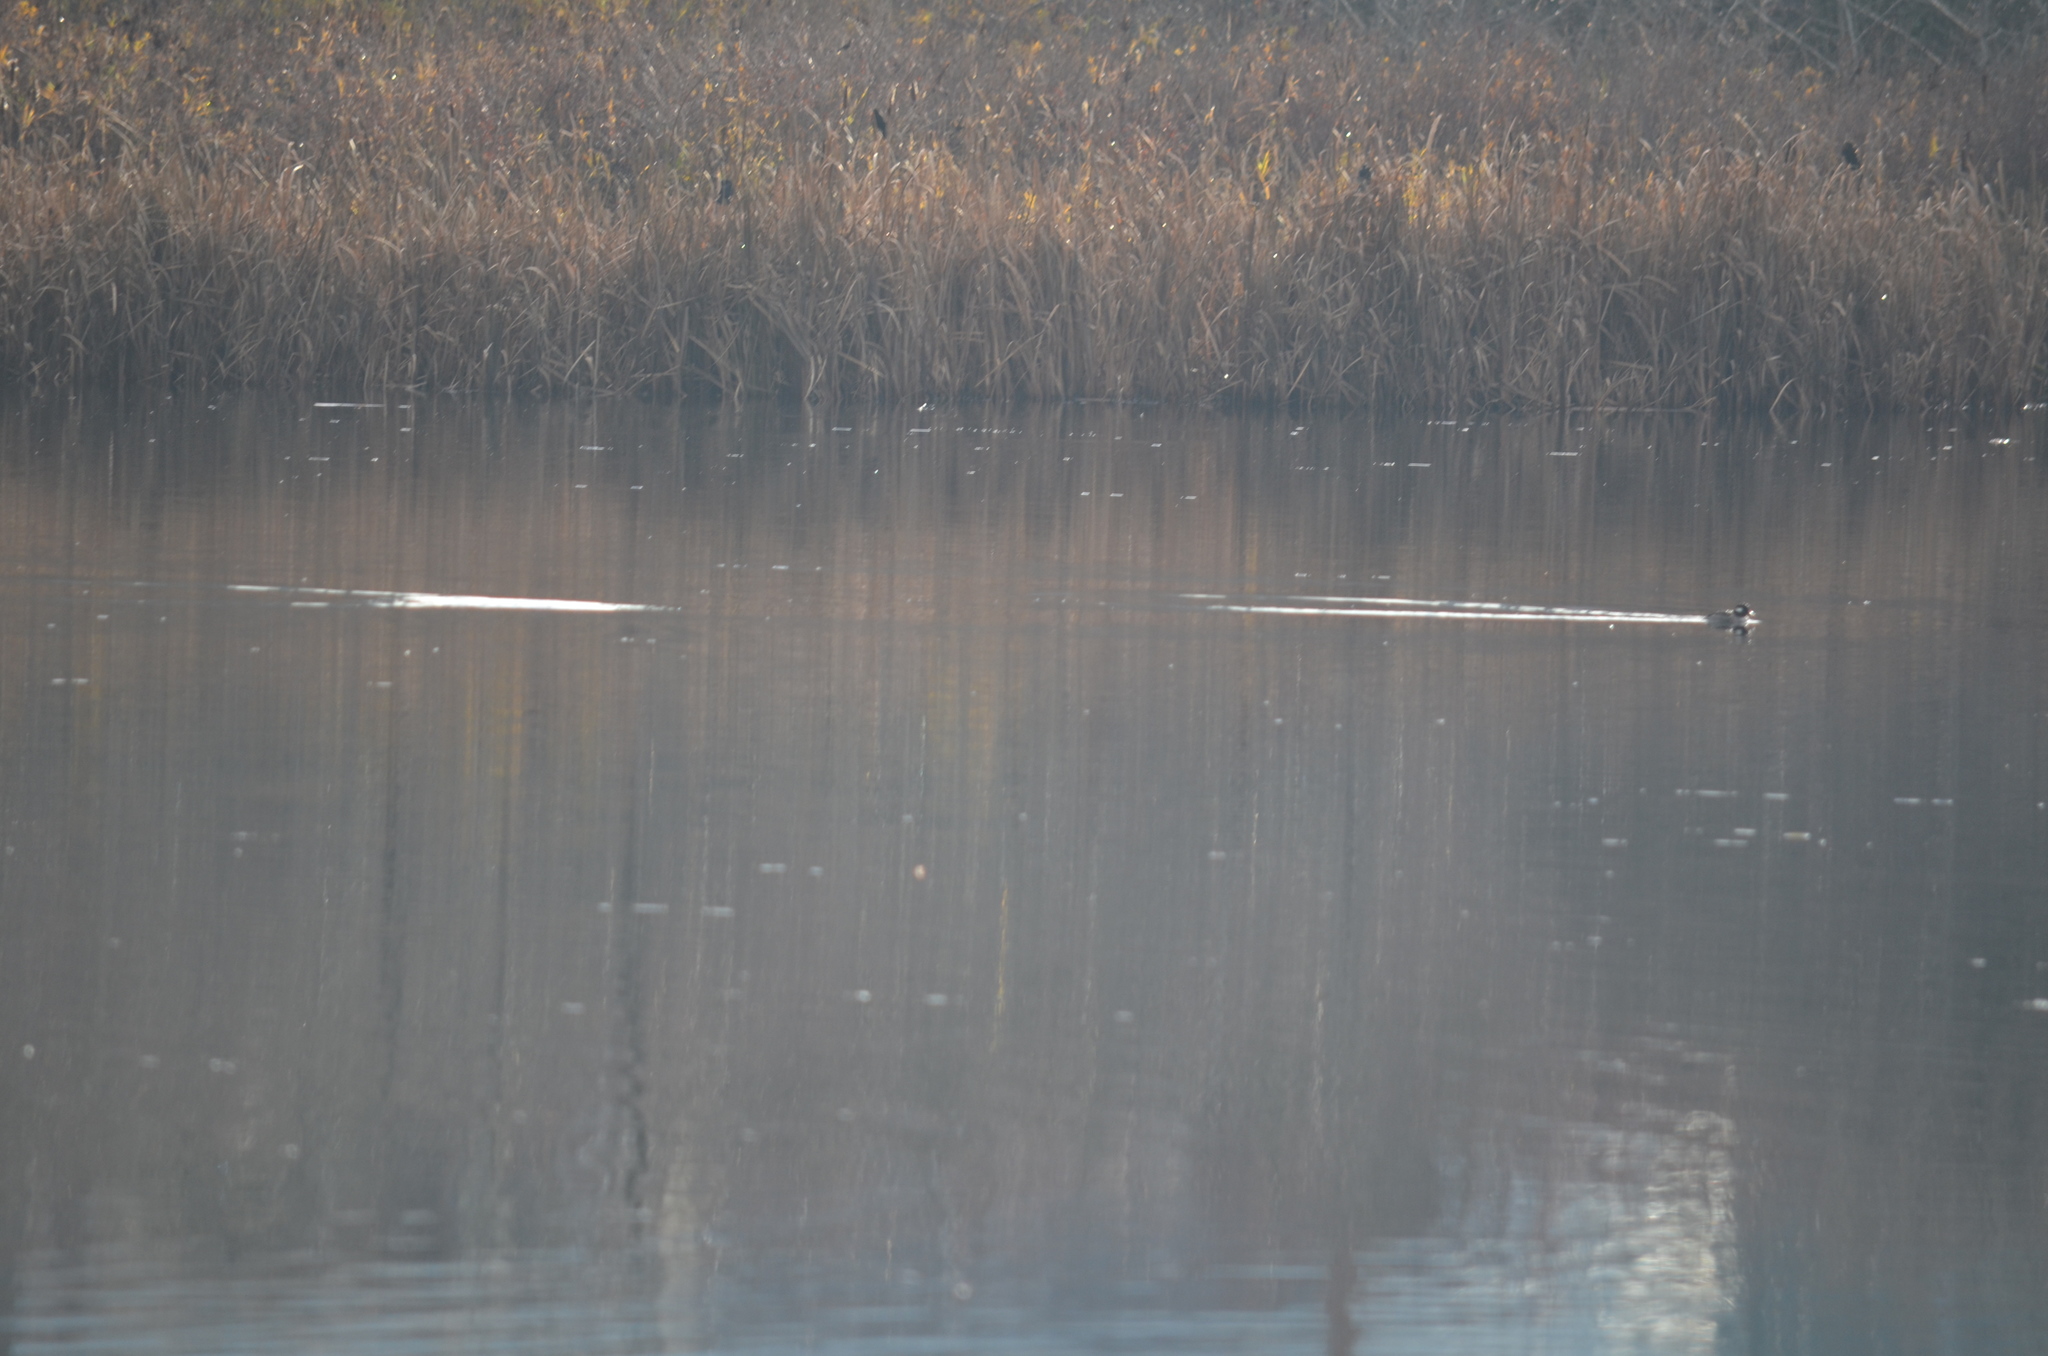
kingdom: Animalia
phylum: Chordata
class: Aves
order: Anseriformes
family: Anatidae
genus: Bucephala
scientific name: Bucephala albeola
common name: Bufflehead
